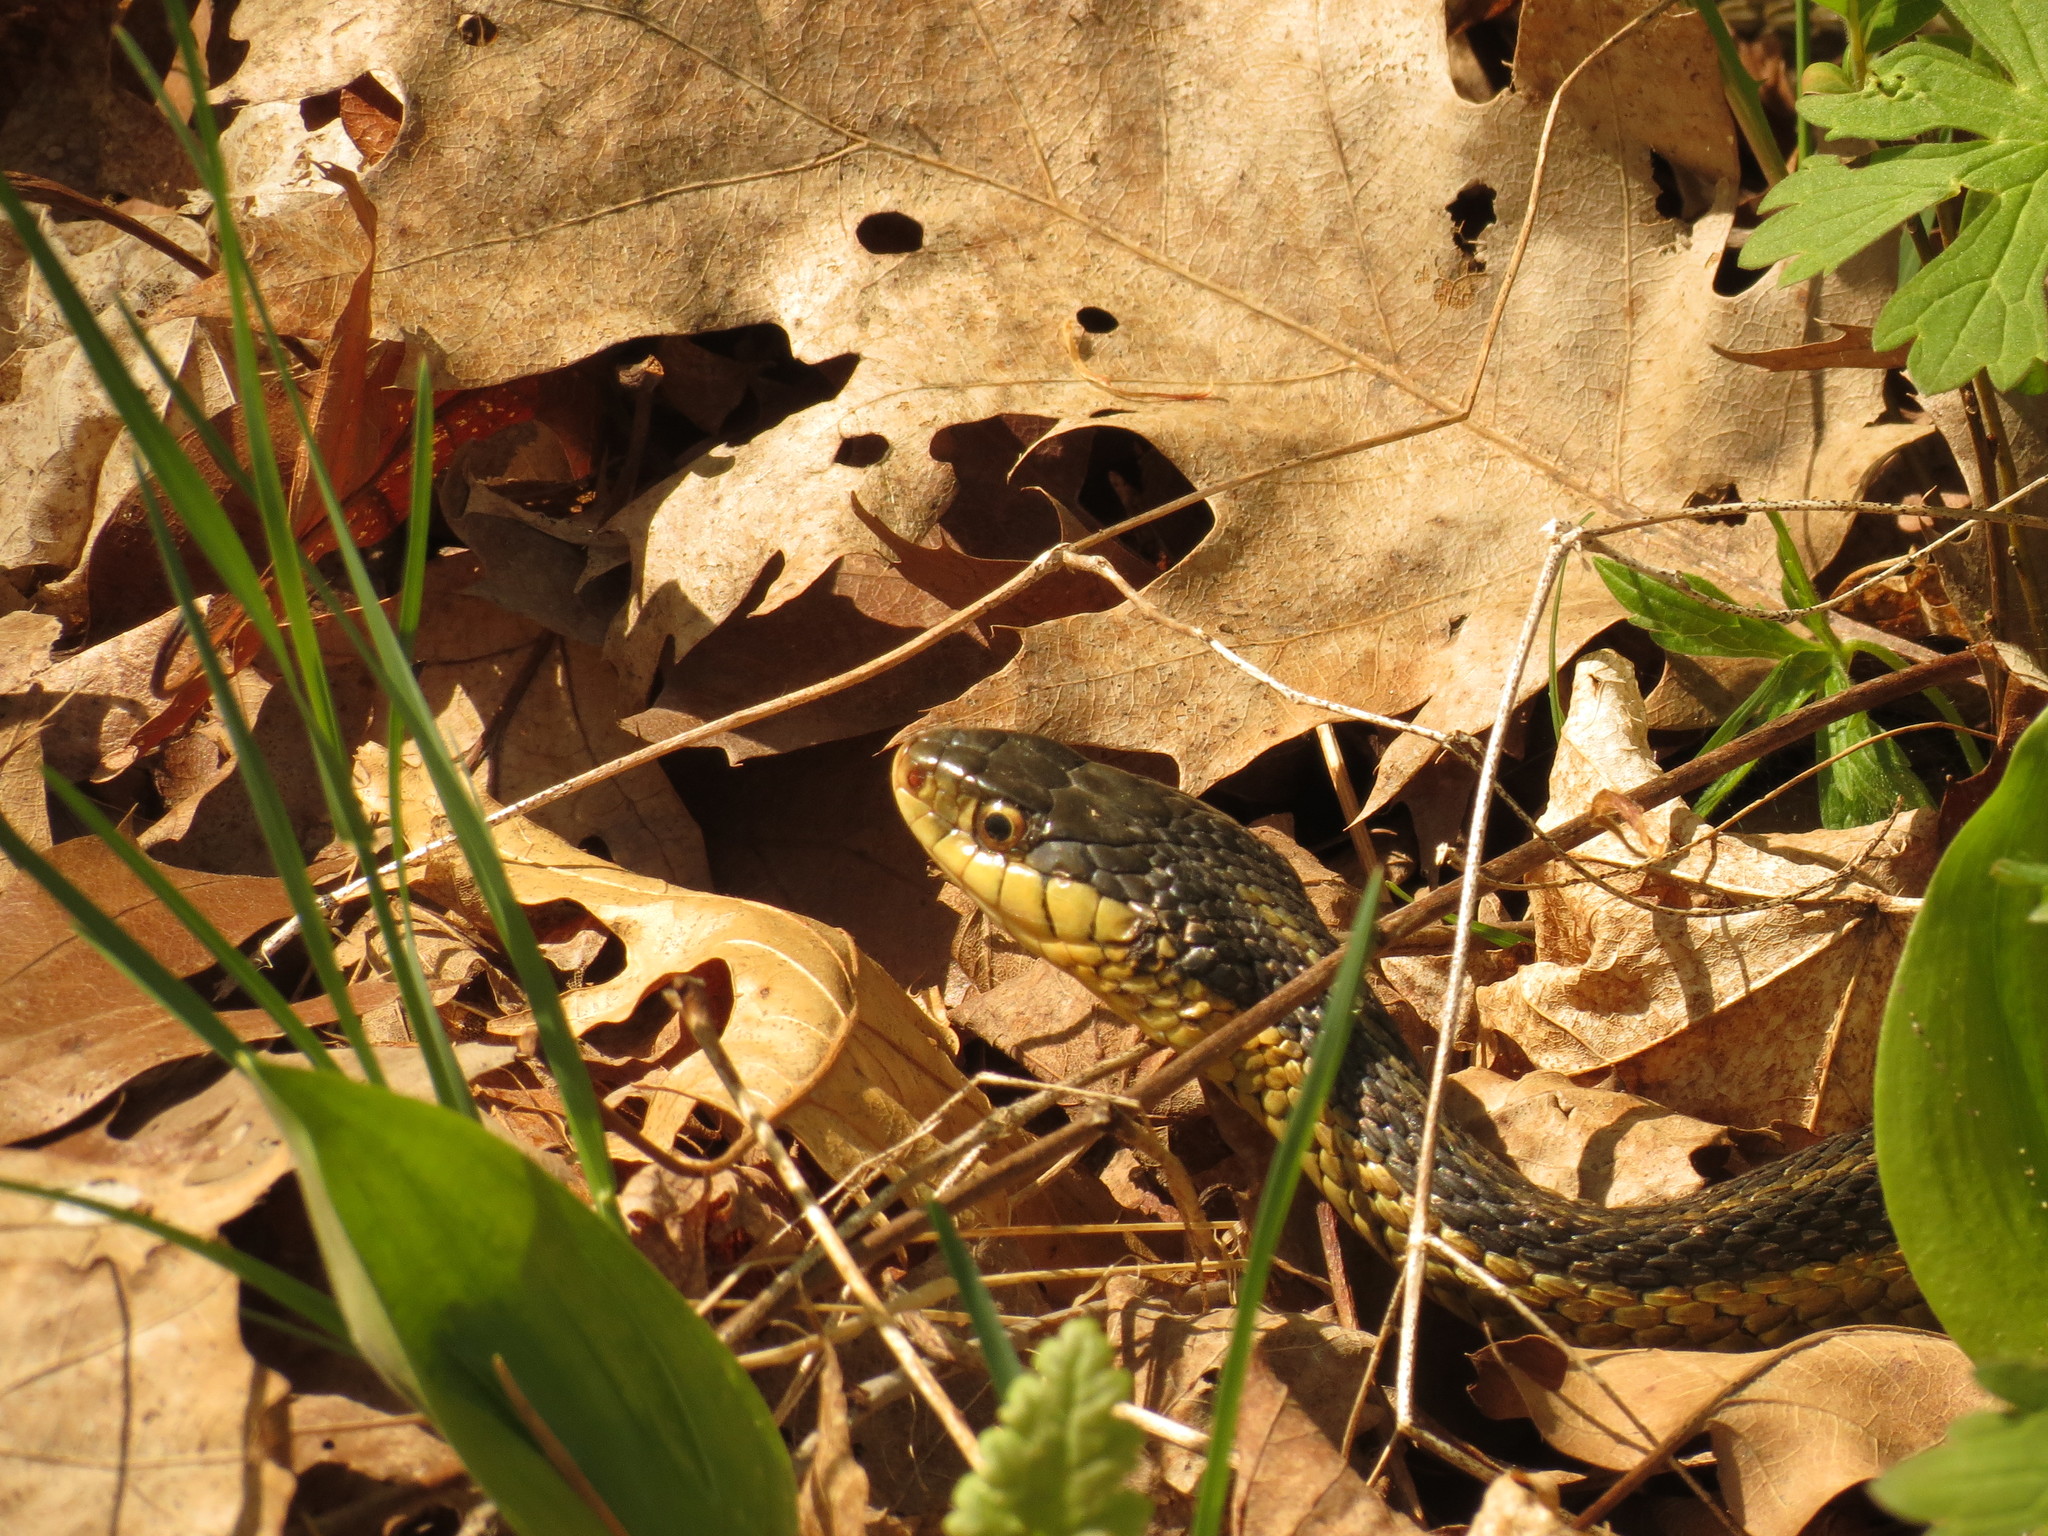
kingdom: Animalia
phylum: Chordata
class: Squamata
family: Colubridae
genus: Thamnophis
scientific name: Thamnophis sirtalis
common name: Common garter snake
